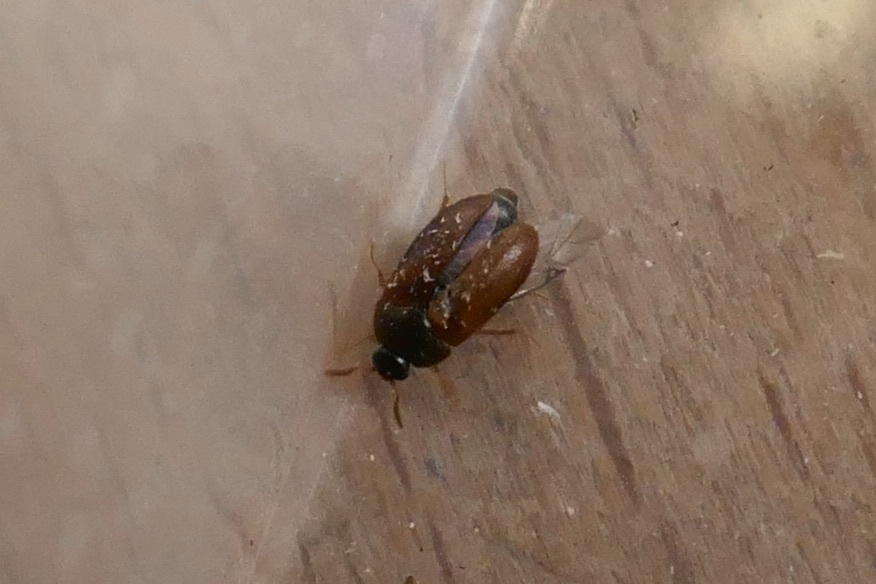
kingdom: Animalia
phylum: Arthropoda
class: Insecta
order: Coleoptera
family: Dermestidae
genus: Attagenus
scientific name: Attagenus smirnovi
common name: Brown carpet beetle
